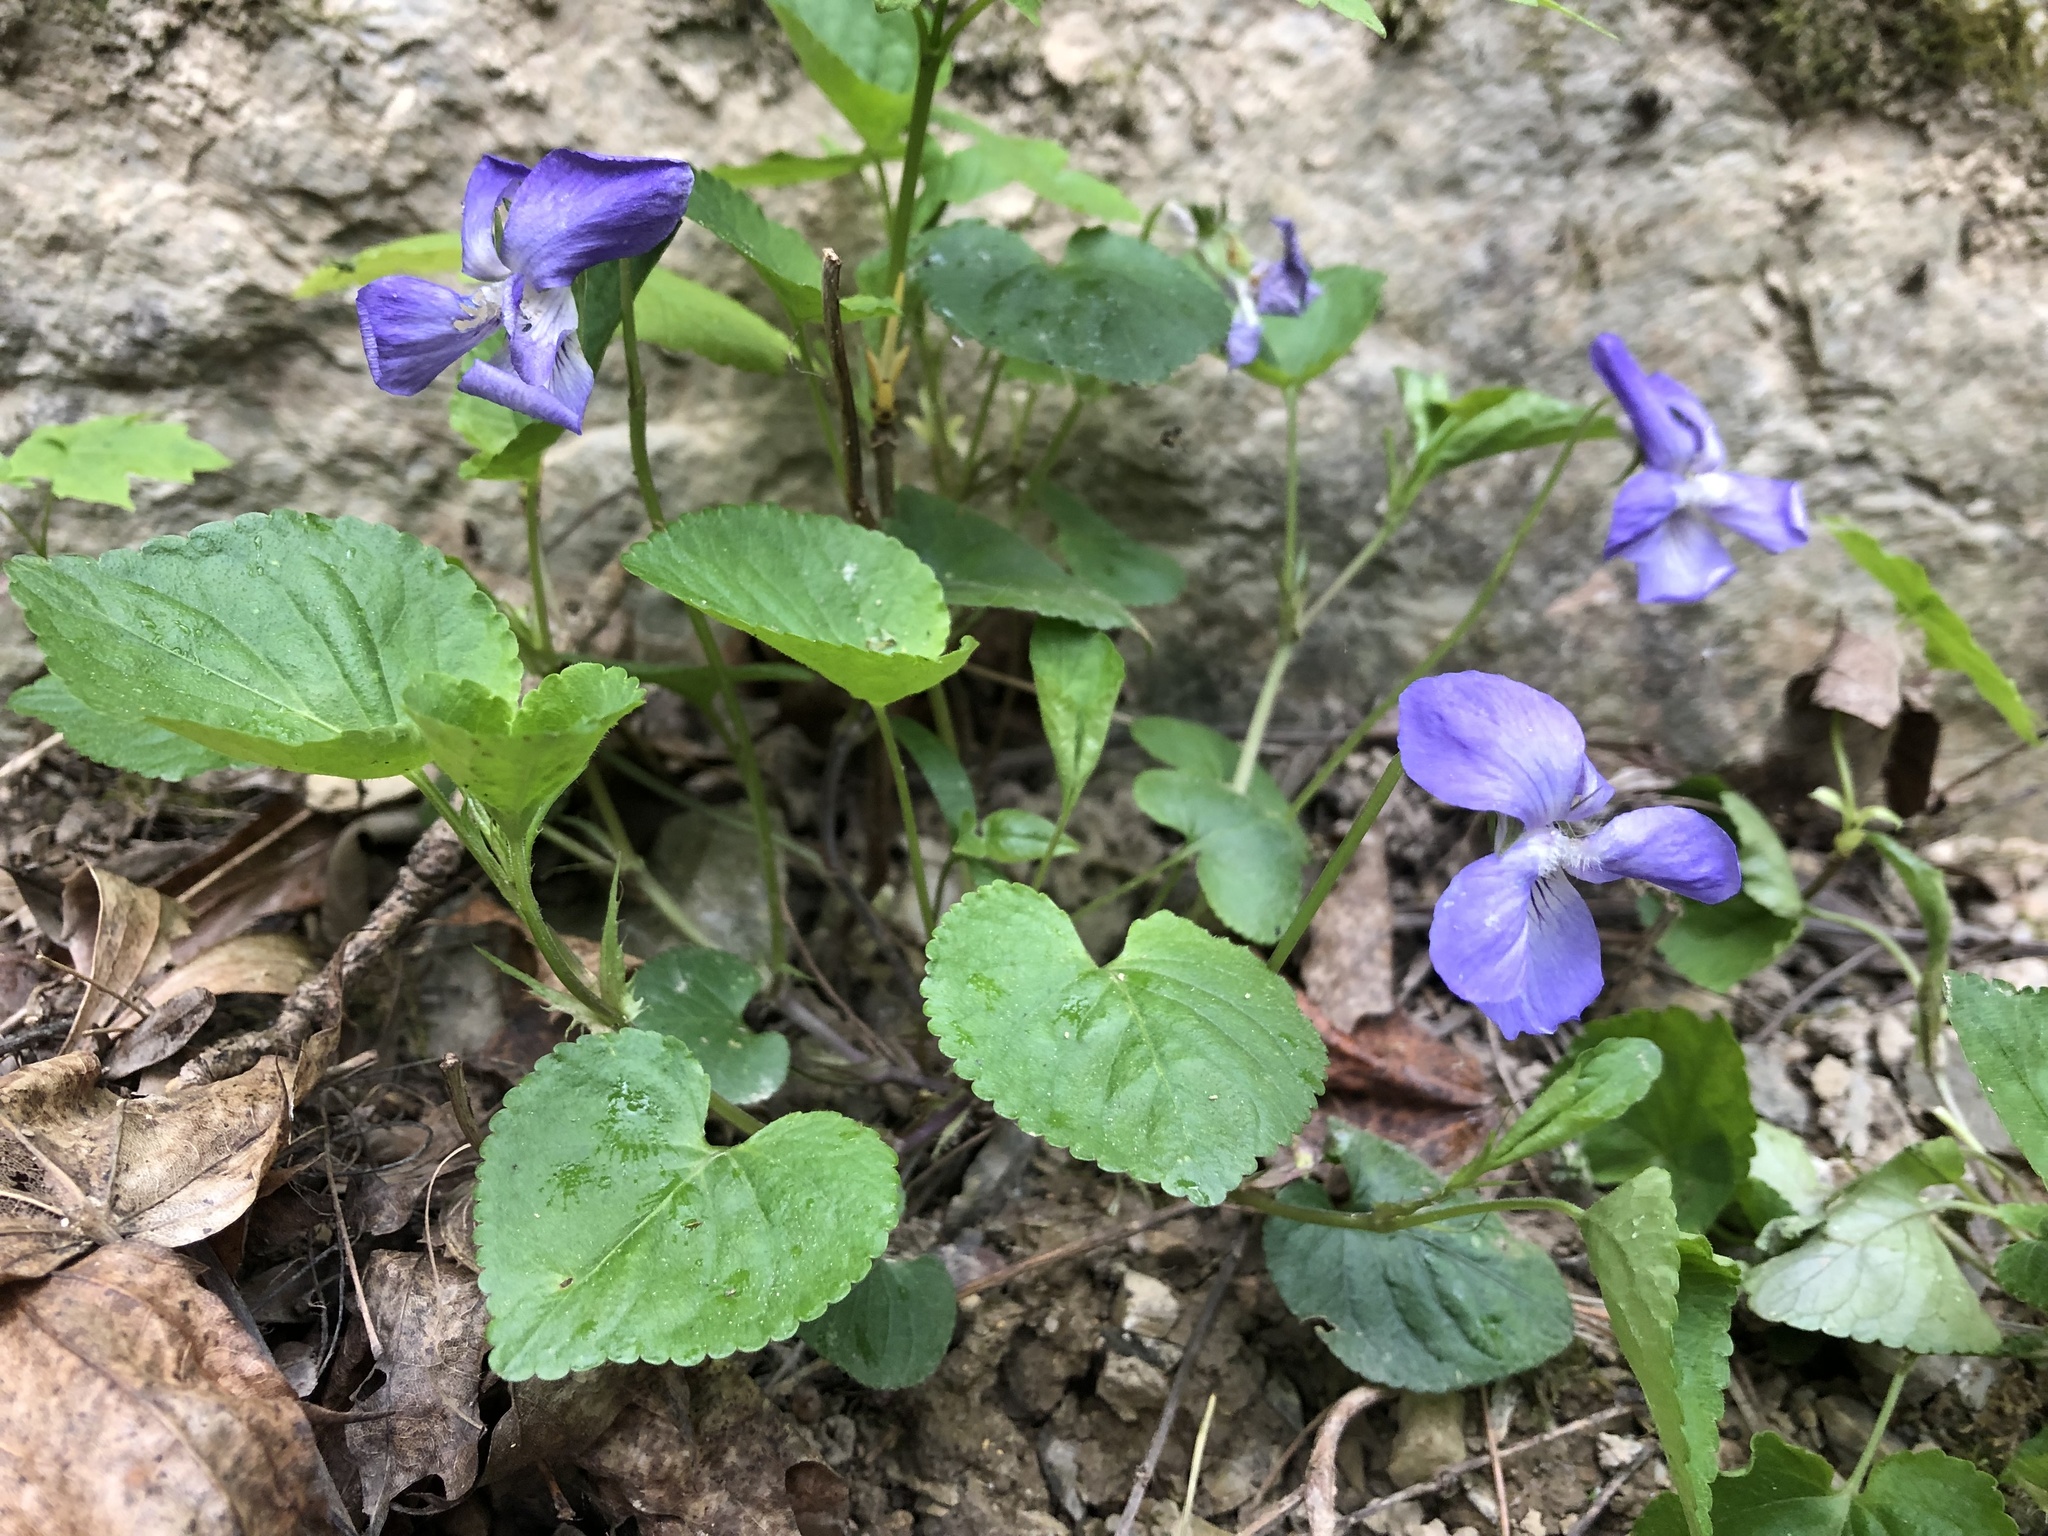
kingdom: Plantae
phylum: Tracheophyta
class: Magnoliopsida
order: Malpighiales
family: Violaceae
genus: Viola
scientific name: Viola riviniana
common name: Common dog-violet
